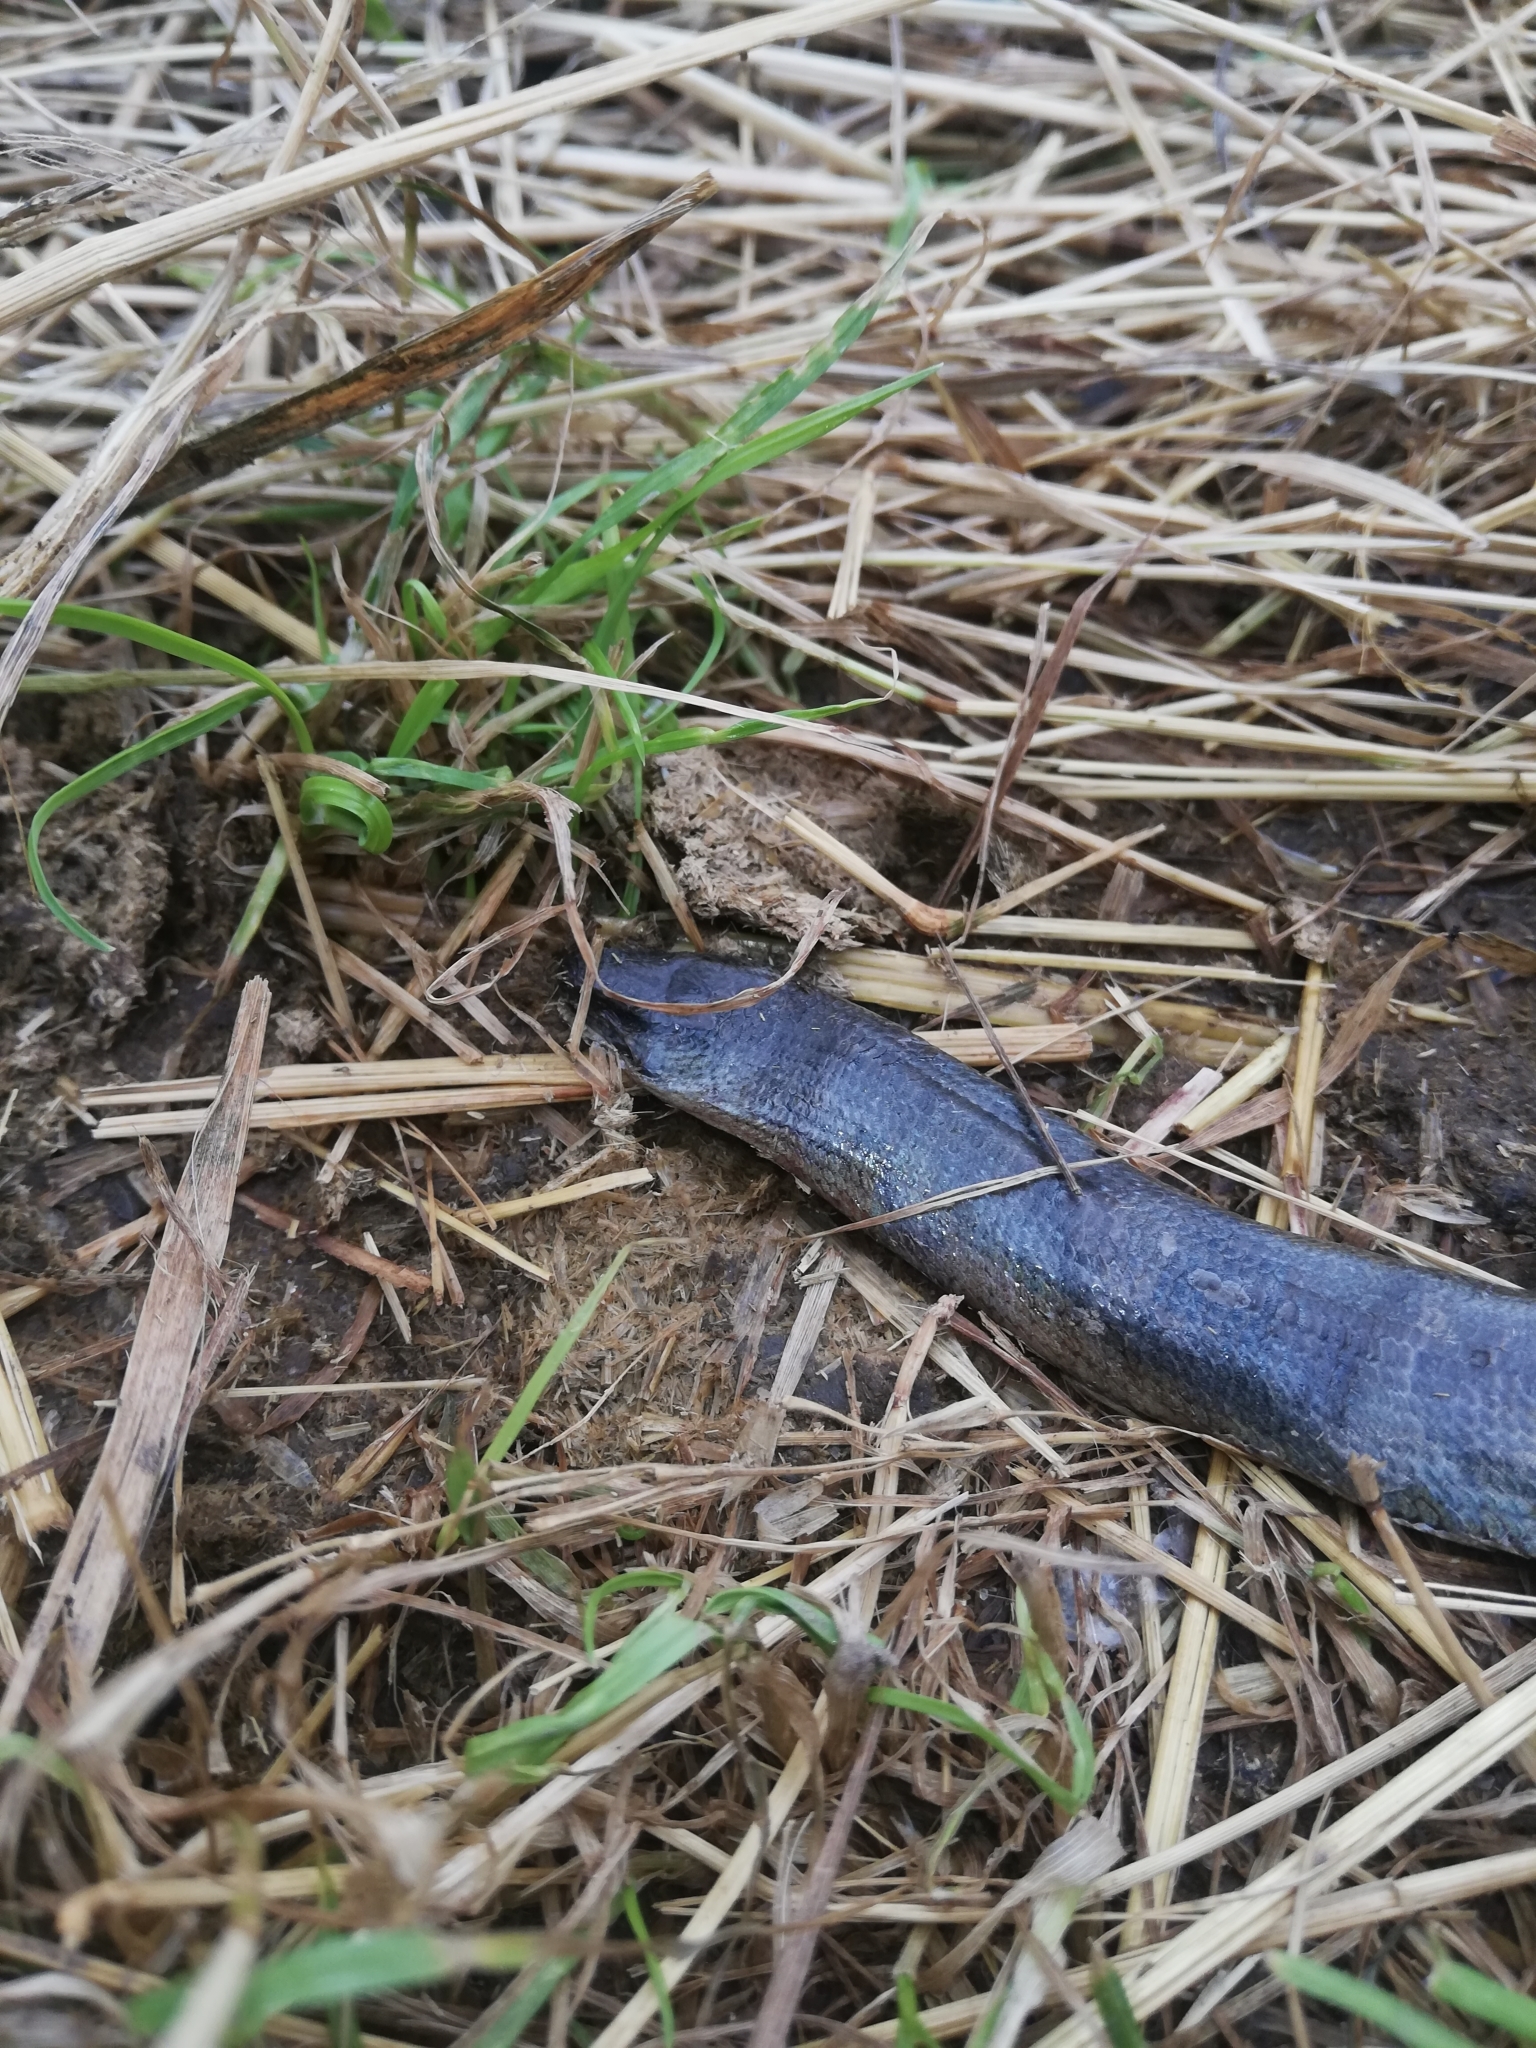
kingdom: Animalia
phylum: Chordata
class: Squamata
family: Anguidae
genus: Anguis
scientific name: Anguis fragilis
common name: Slow worm
